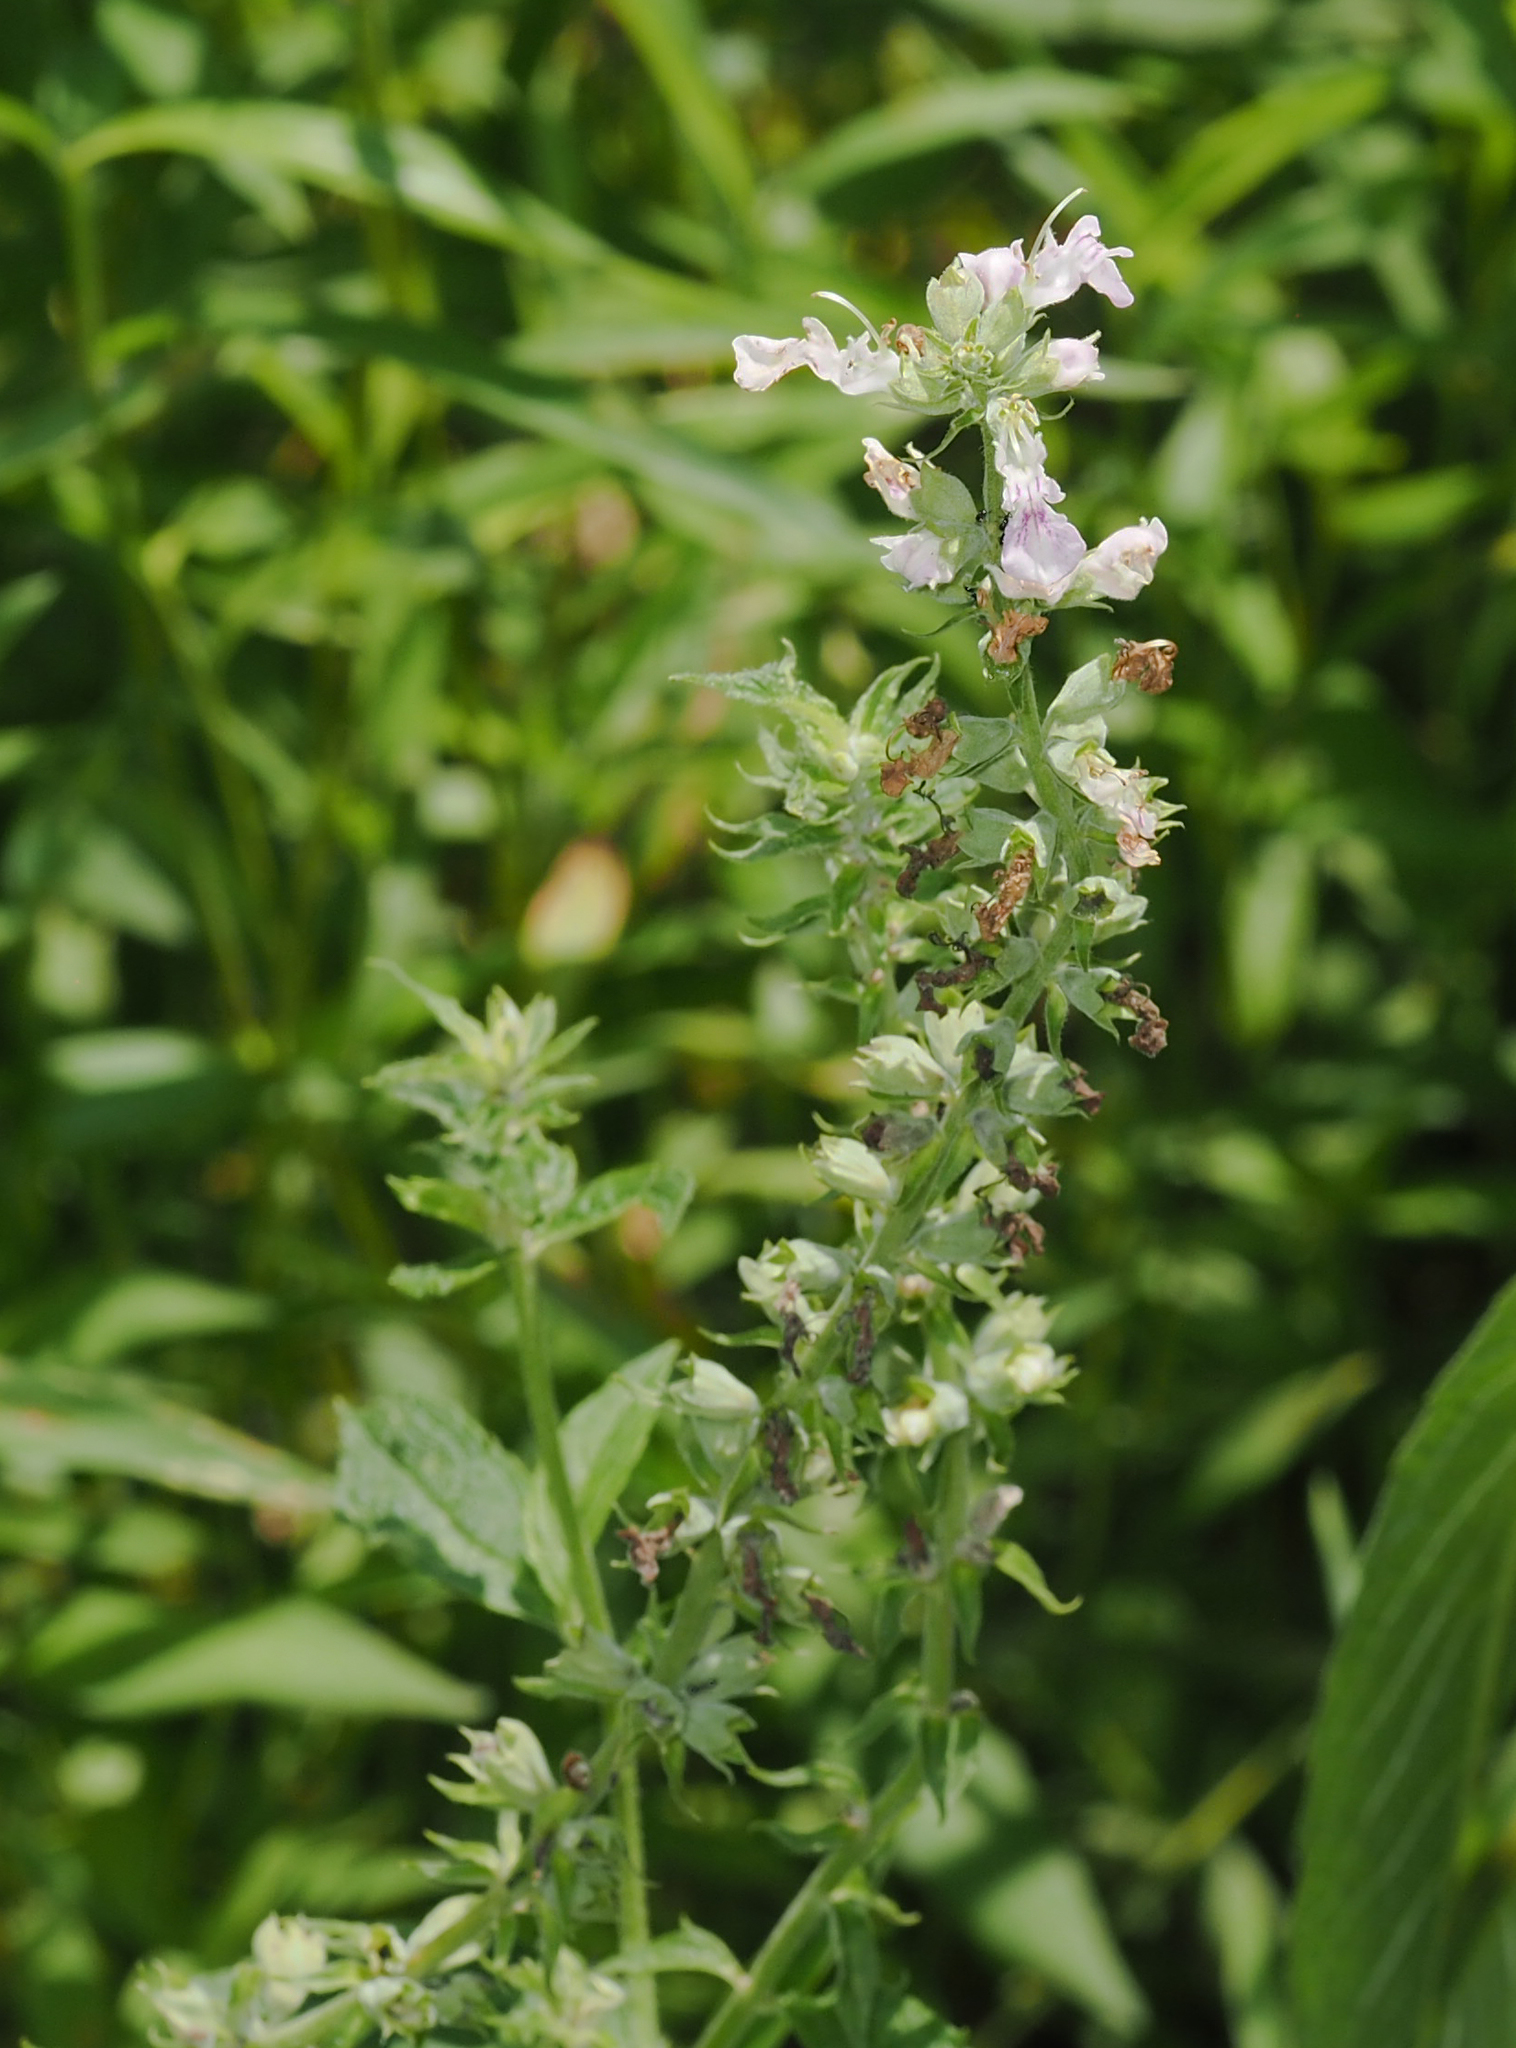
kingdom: Plantae
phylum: Tracheophyta
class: Magnoliopsida
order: Lamiales
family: Lamiaceae
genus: Teucrium
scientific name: Teucrium canadense
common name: American germander
